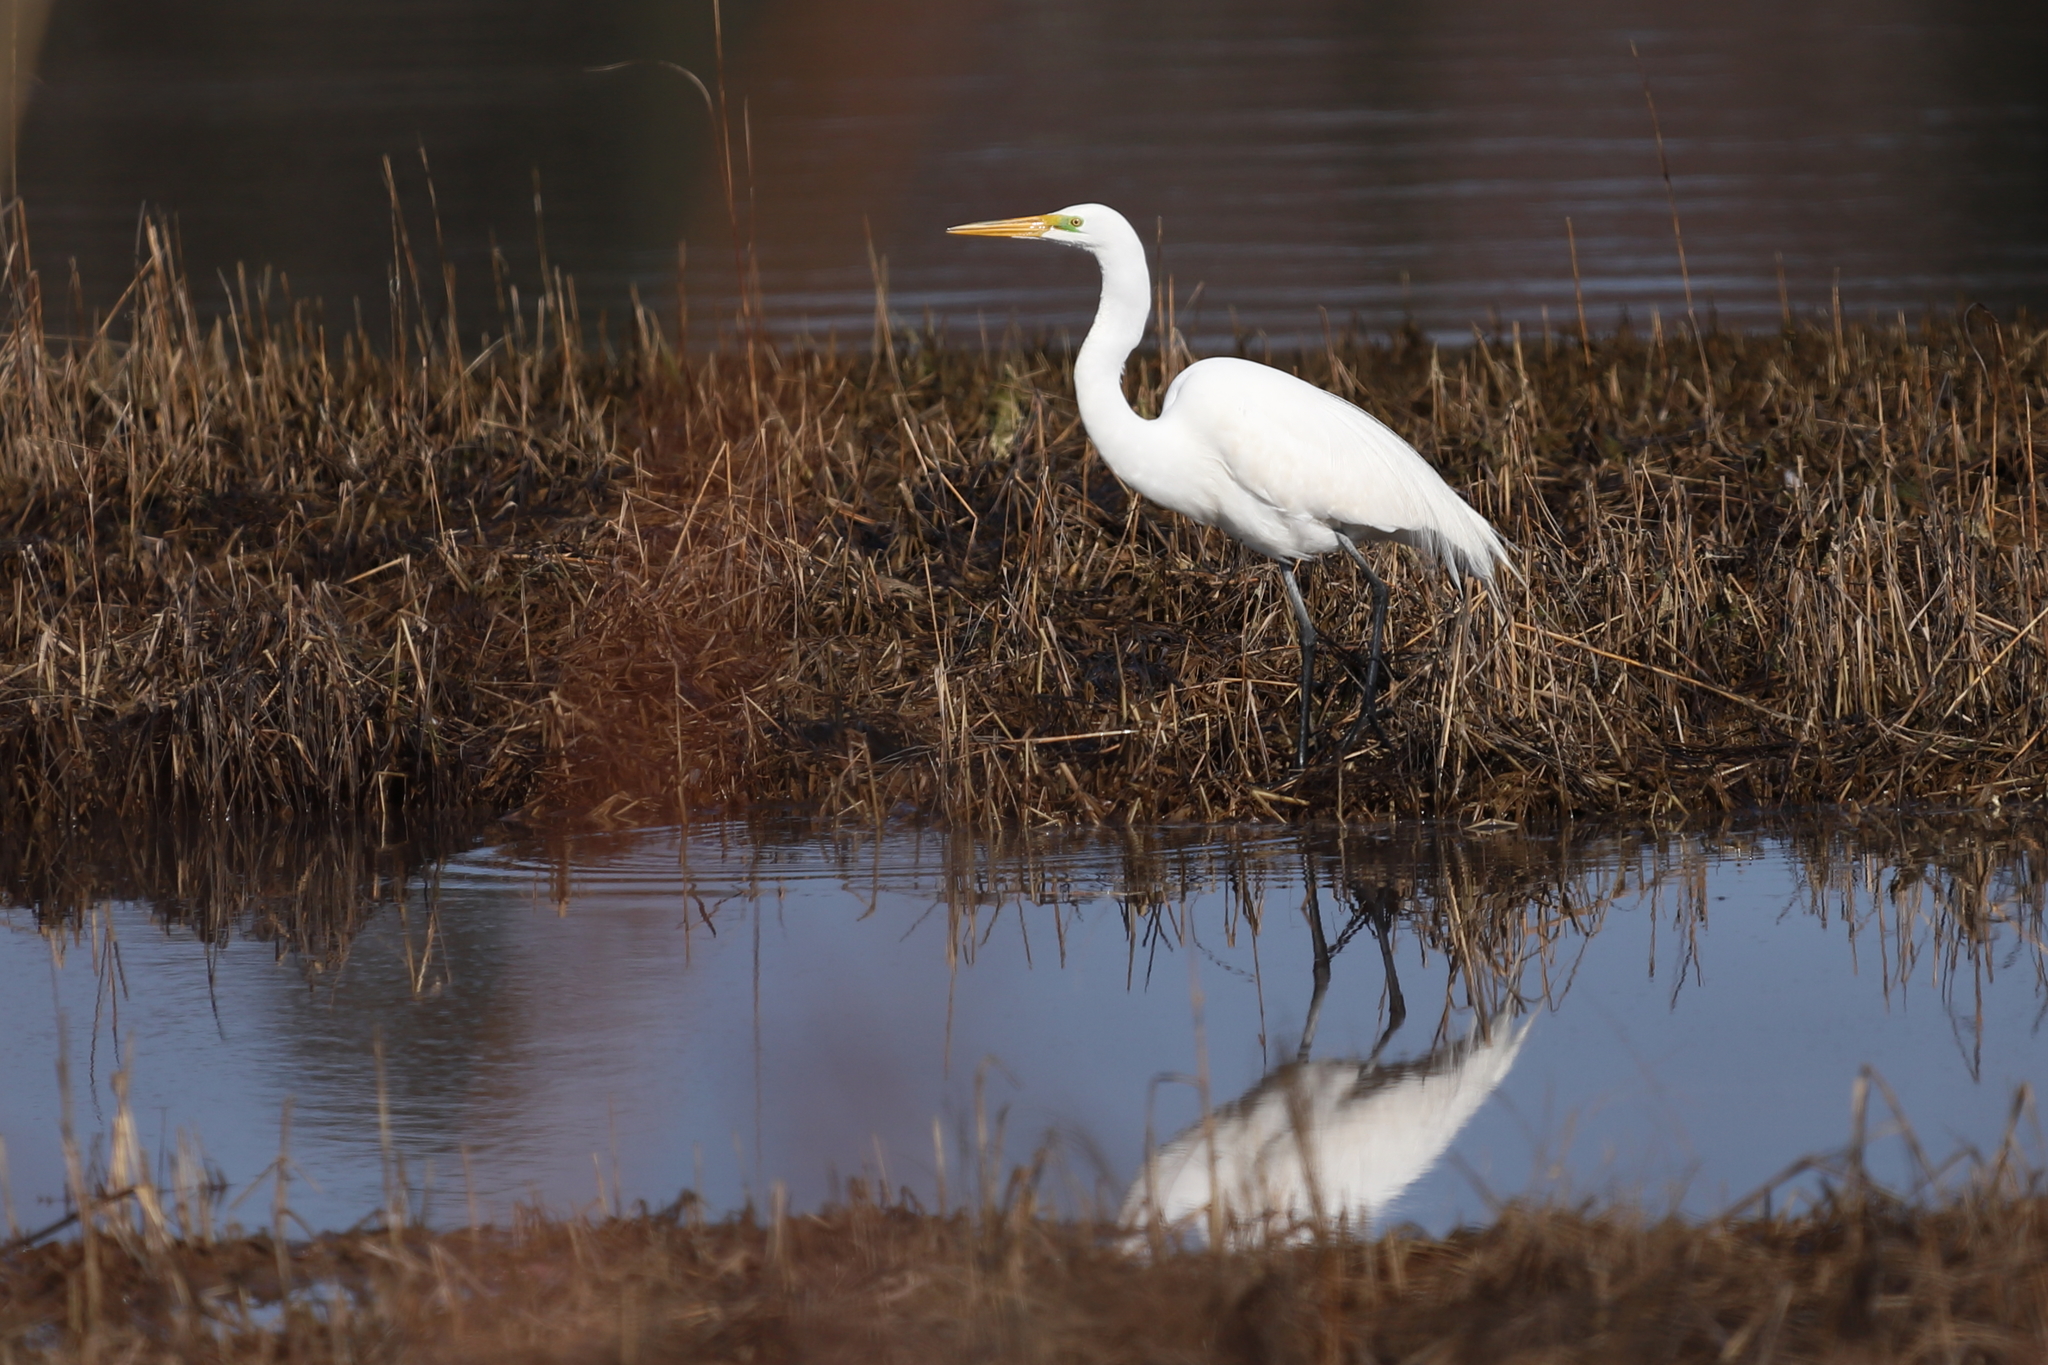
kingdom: Animalia
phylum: Chordata
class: Aves
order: Pelecaniformes
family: Ardeidae
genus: Ardea
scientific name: Ardea alba
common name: Great egret
